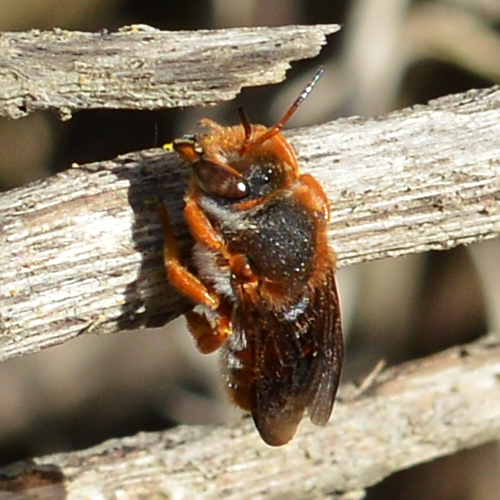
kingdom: Animalia
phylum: Arthropoda
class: Insecta
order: Hymenoptera
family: Megachilidae
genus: Rhodanthidium
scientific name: Rhodanthidium sticticum
